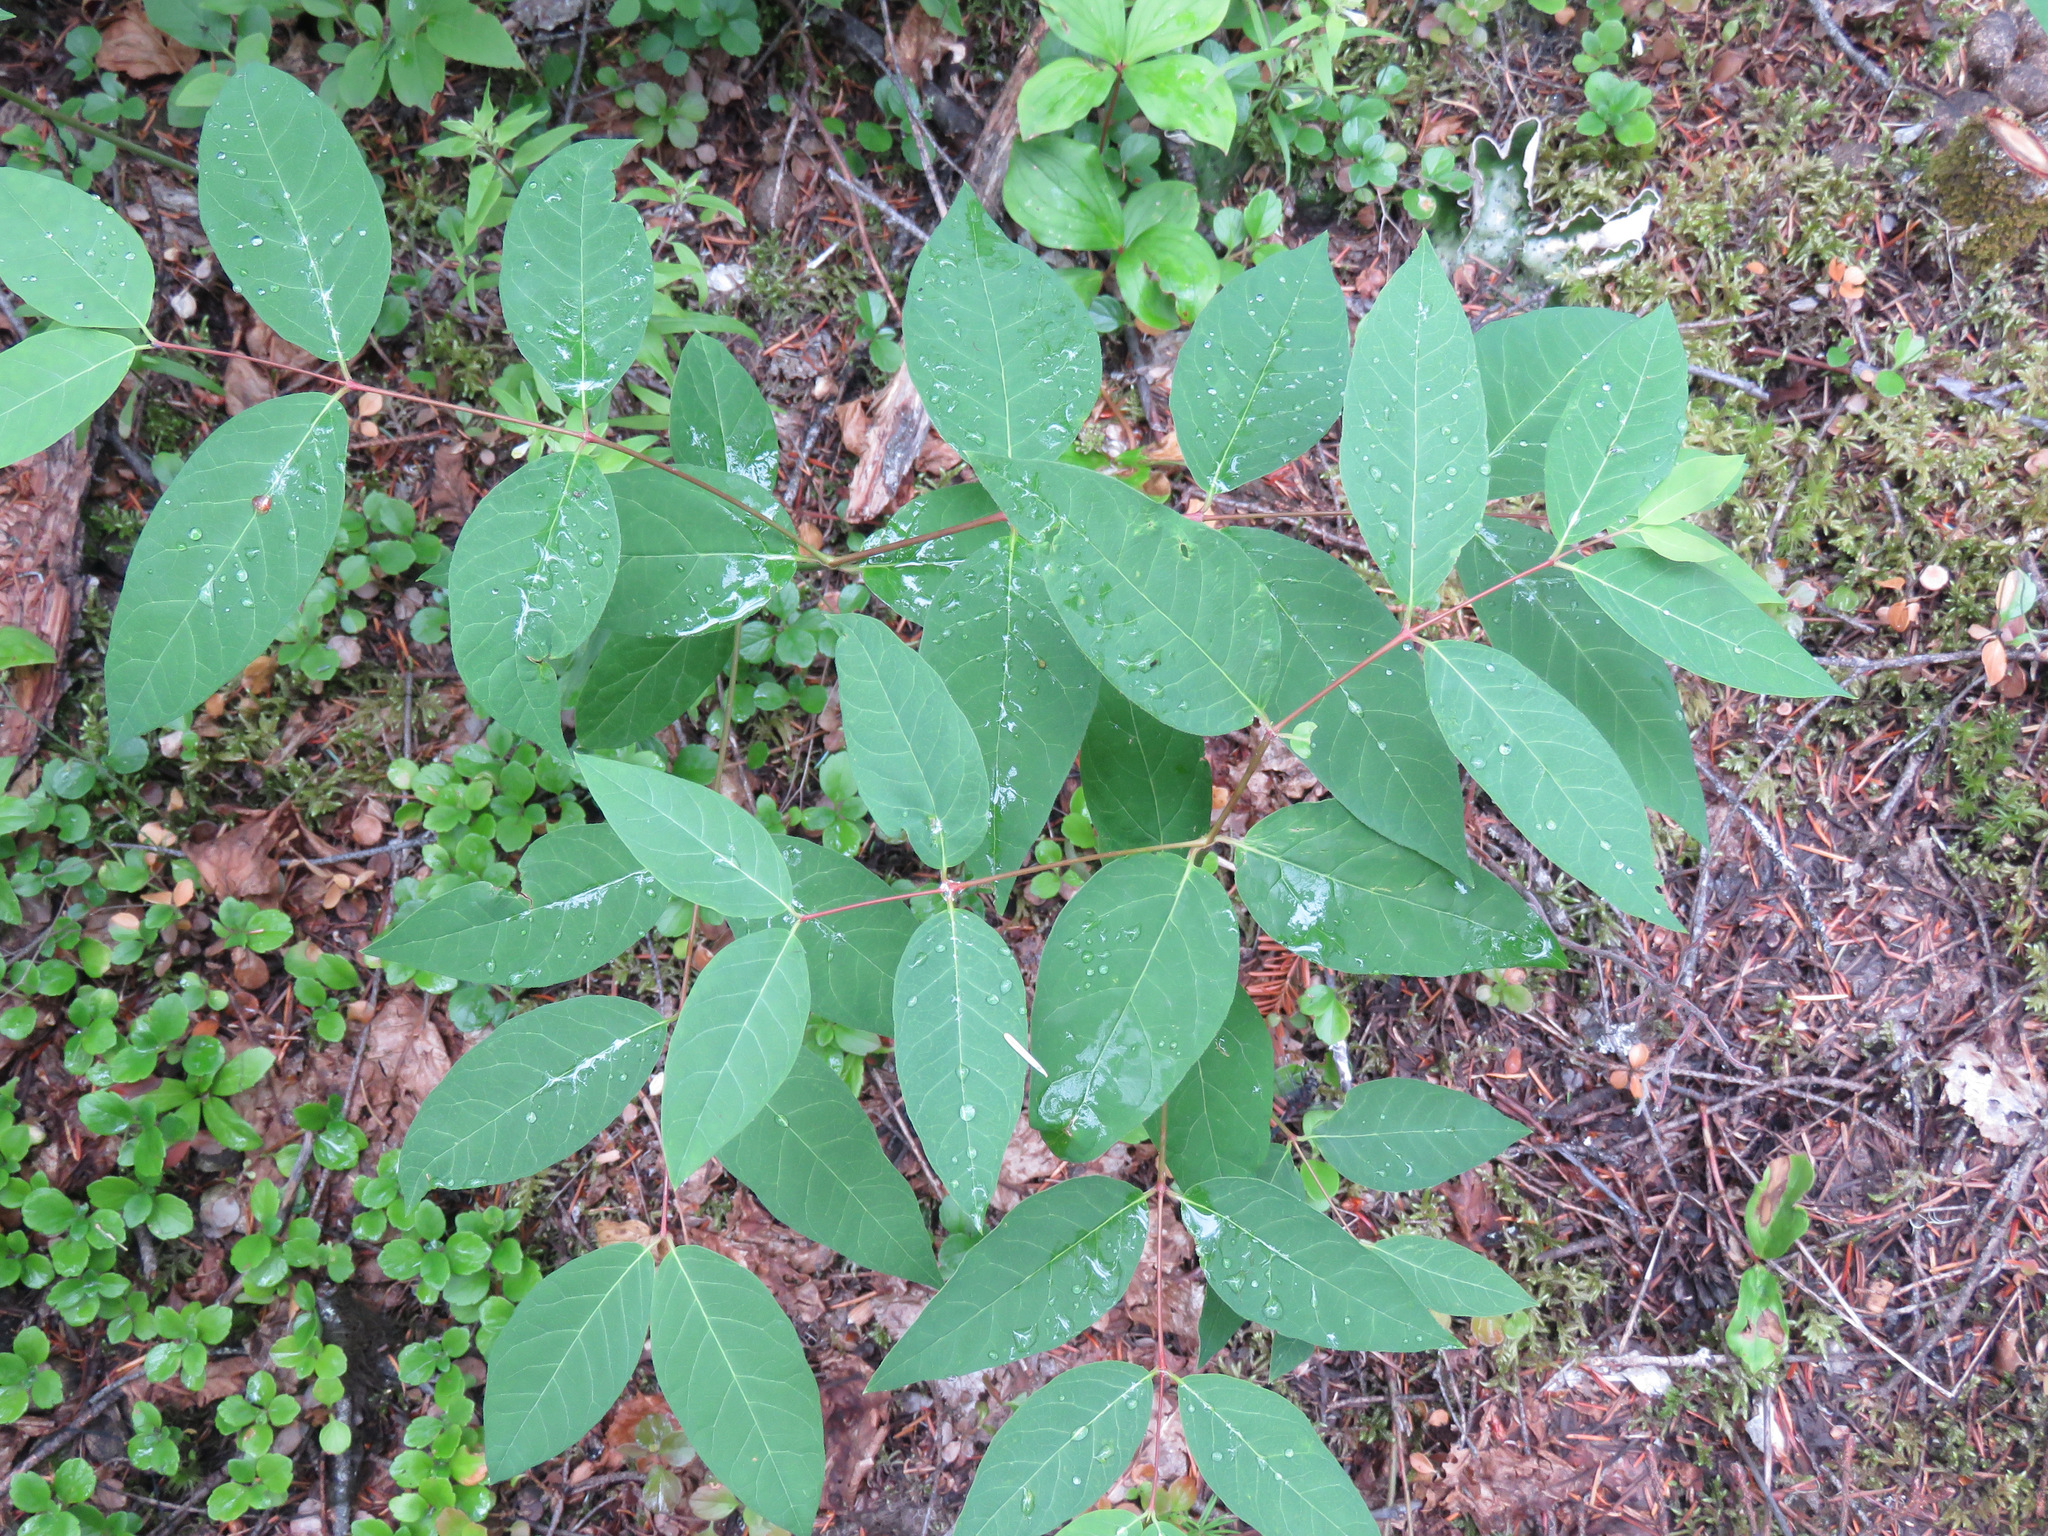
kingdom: Plantae
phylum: Tracheophyta
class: Magnoliopsida
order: Gentianales
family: Apocynaceae
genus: Apocynum
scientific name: Apocynum androsaemifolium
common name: Spreading dogbane
